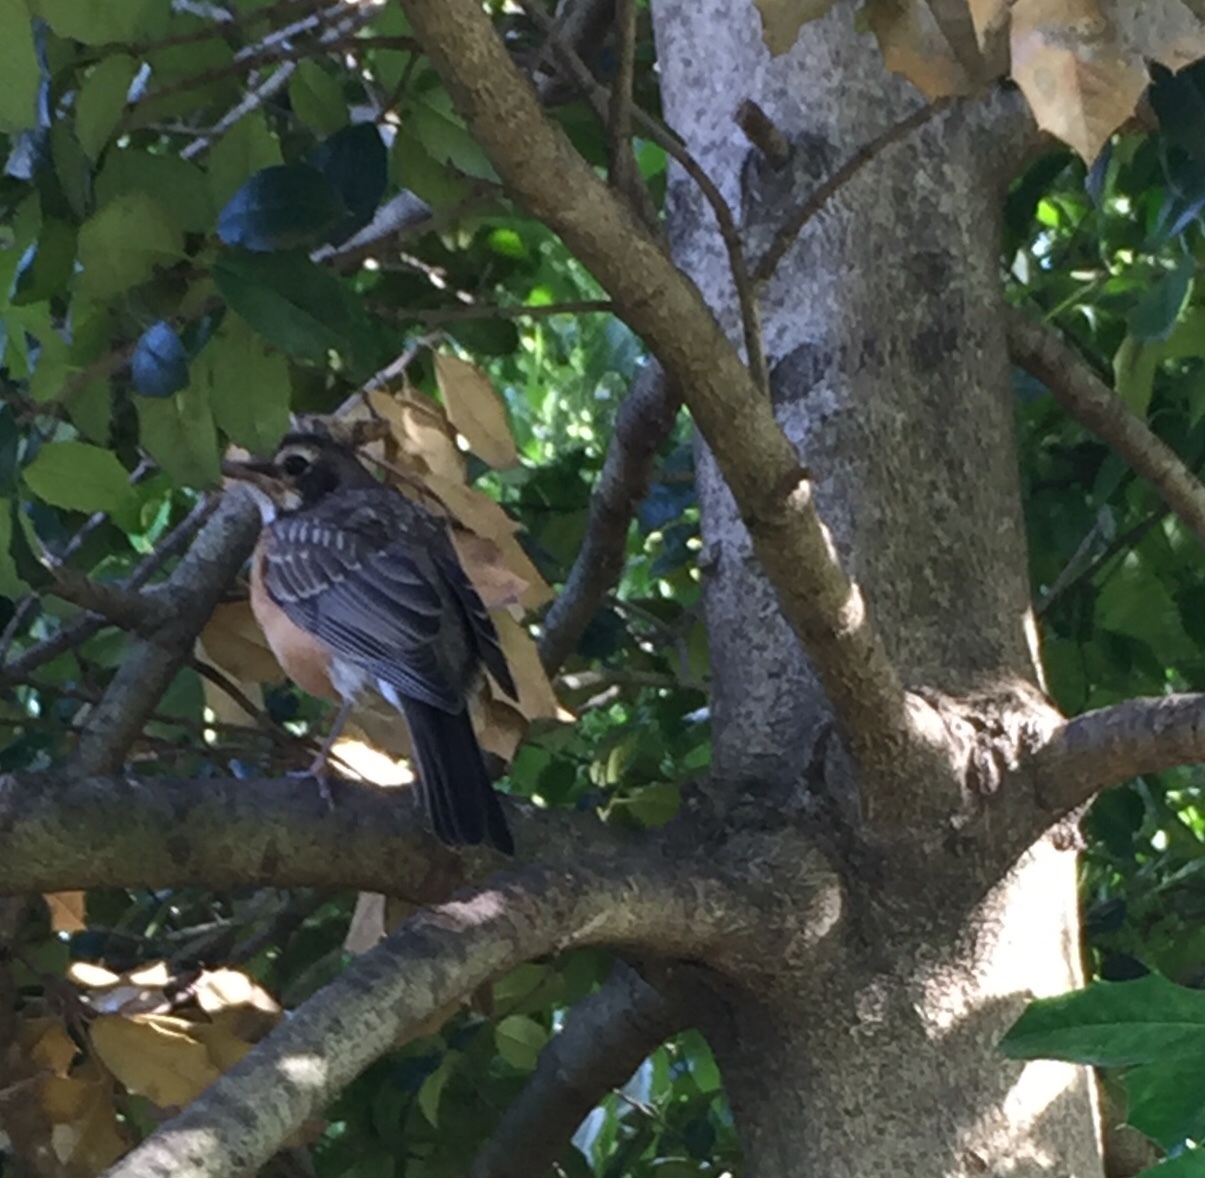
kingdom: Animalia
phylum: Chordata
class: Aves
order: Passeriformes
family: Turdidae
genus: Turdus
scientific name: Turdus migratorius
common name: American robin
